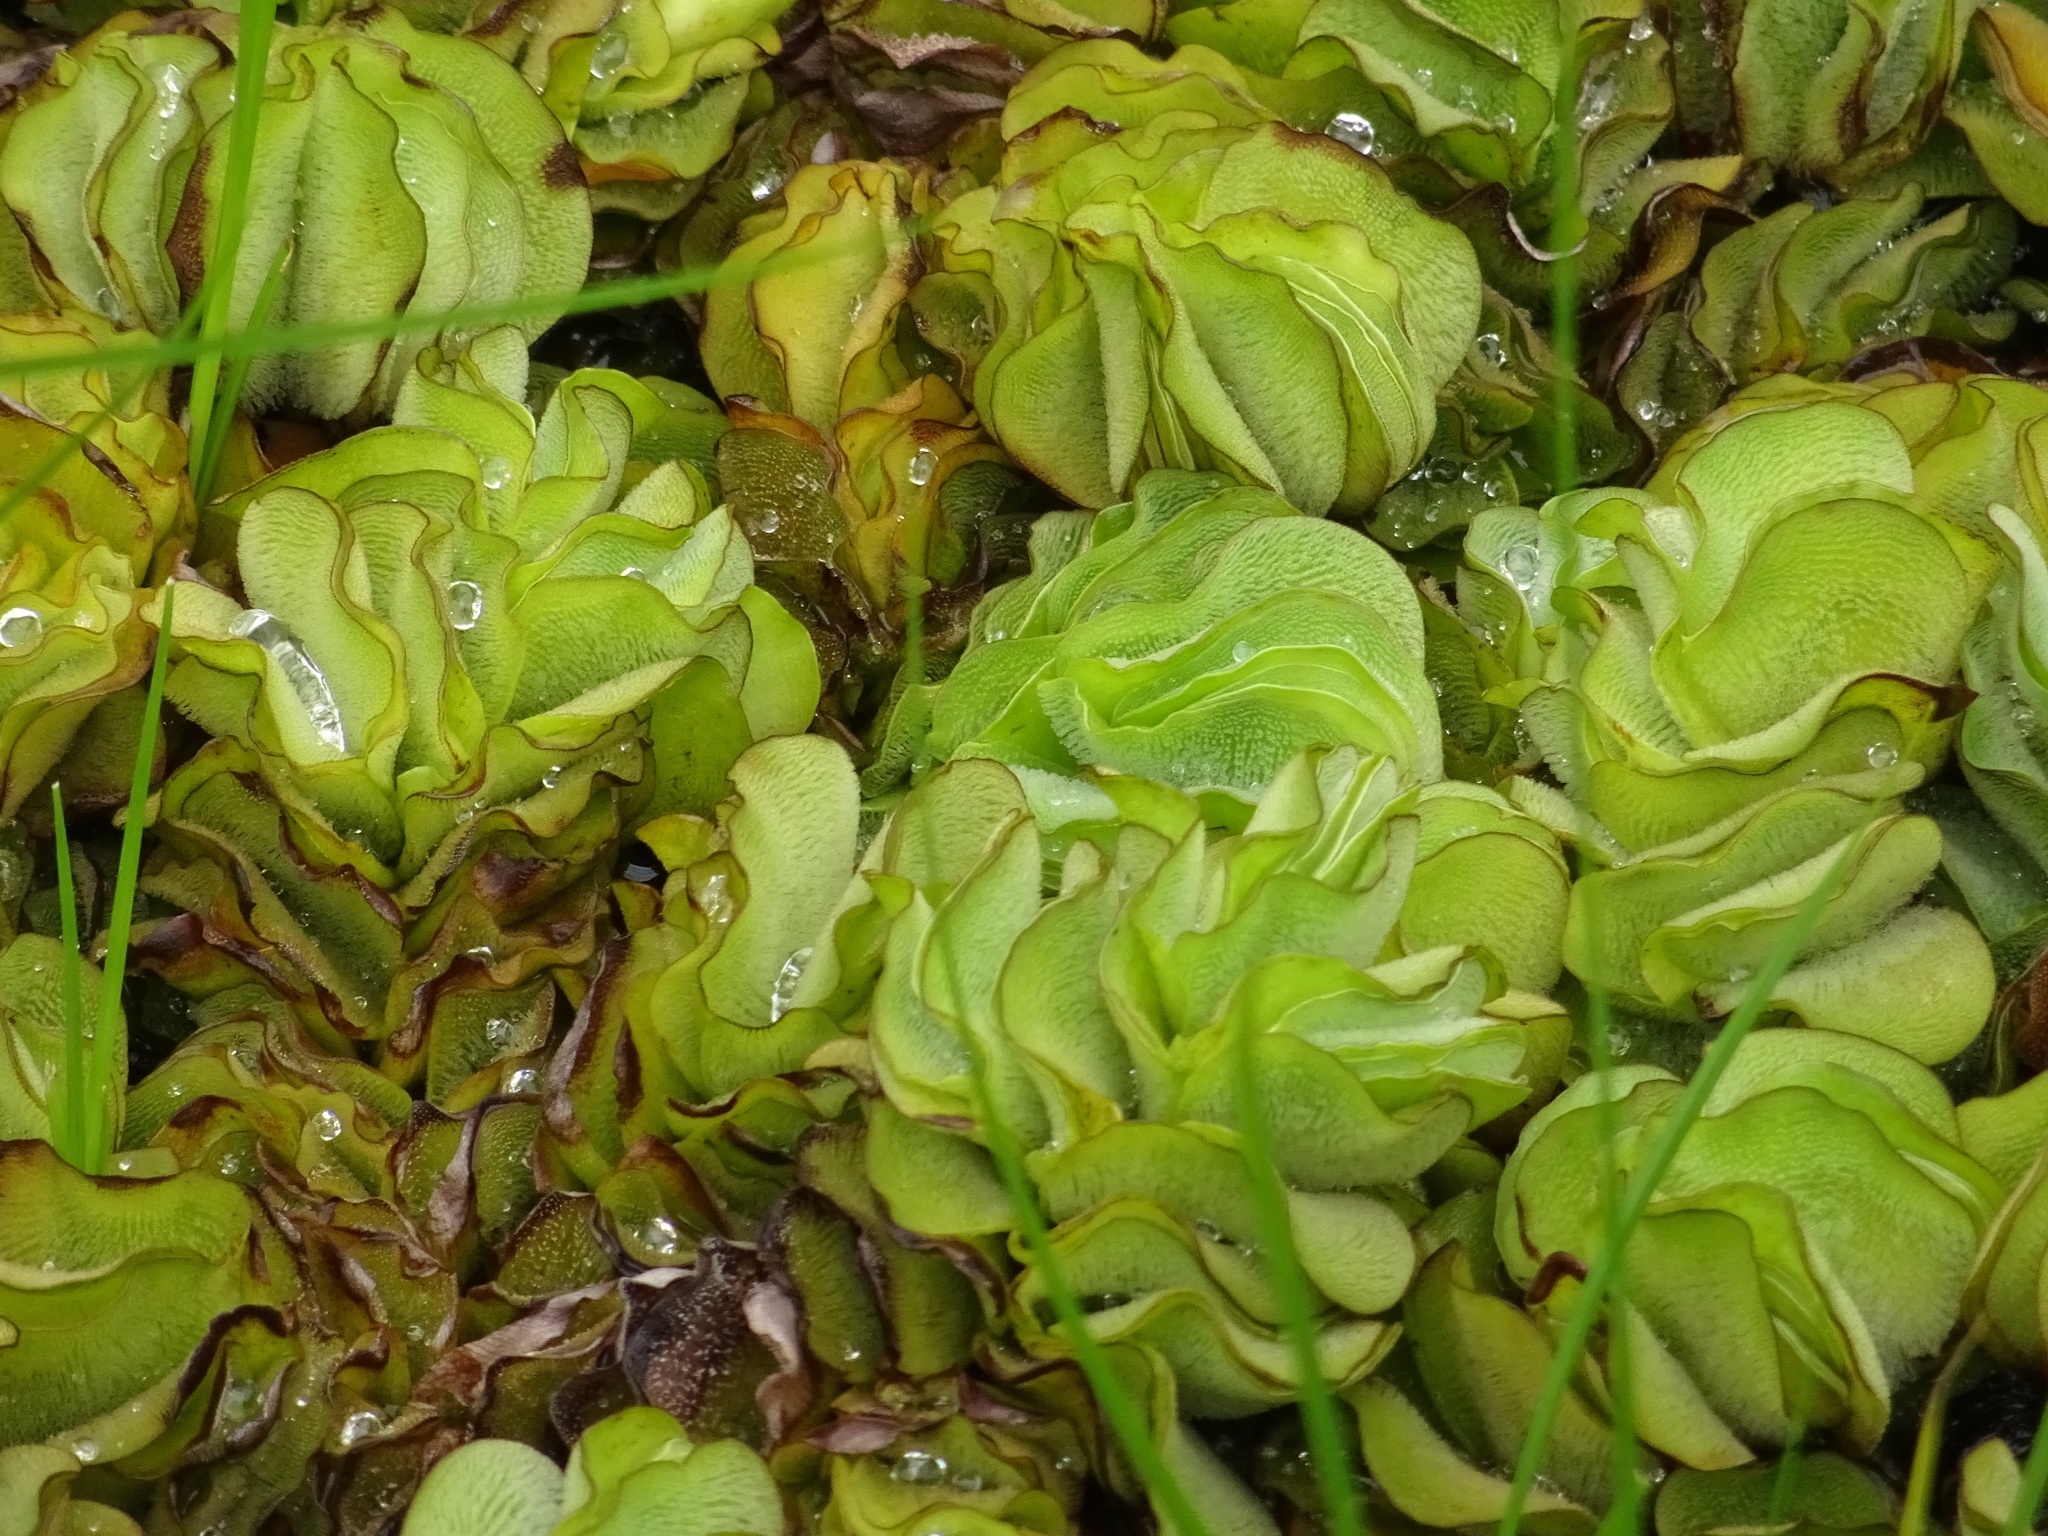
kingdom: Plantae
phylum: Tracheophyta
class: Polypodiopsida
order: Salviniales
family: Salviniaceae
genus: Salvinia
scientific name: Salvinia molesta
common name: Kariba weed
